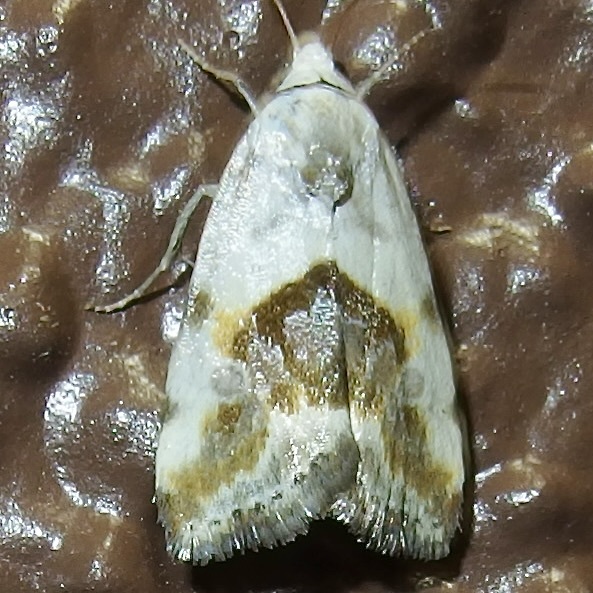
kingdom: Animalia
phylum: Arthropoda
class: Insecta
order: Lepidoptera
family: Noctuidae
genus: Acontia
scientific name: Acontia candefacta
